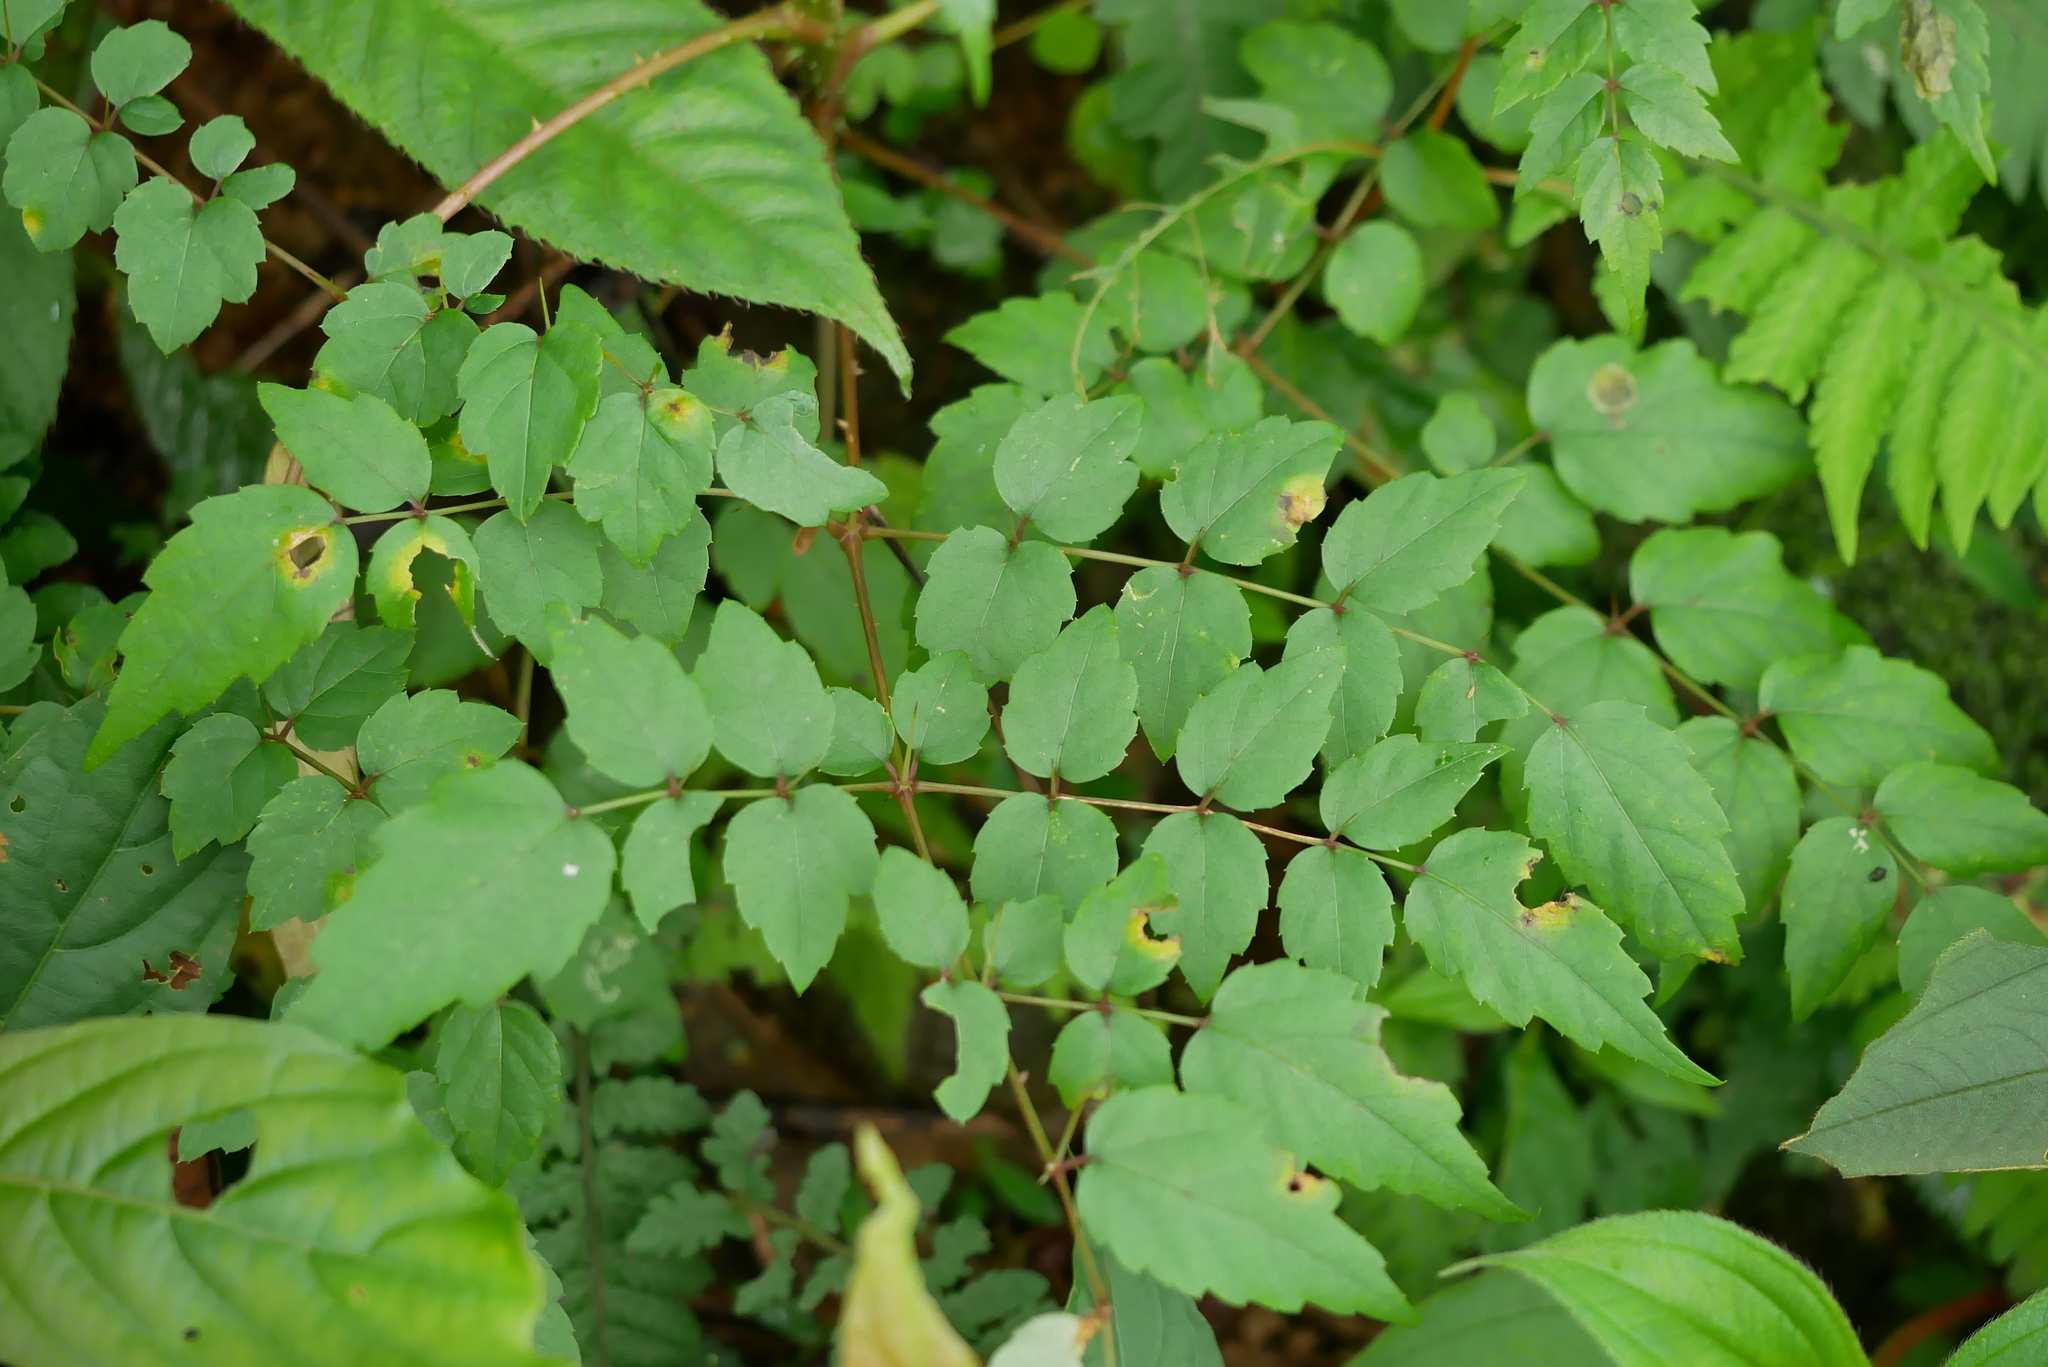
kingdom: Plantae
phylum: Tracheophyta
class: Magnoliopsida
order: Apiales
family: Araliaceae
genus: Aralia
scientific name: Aralia bipinnata
